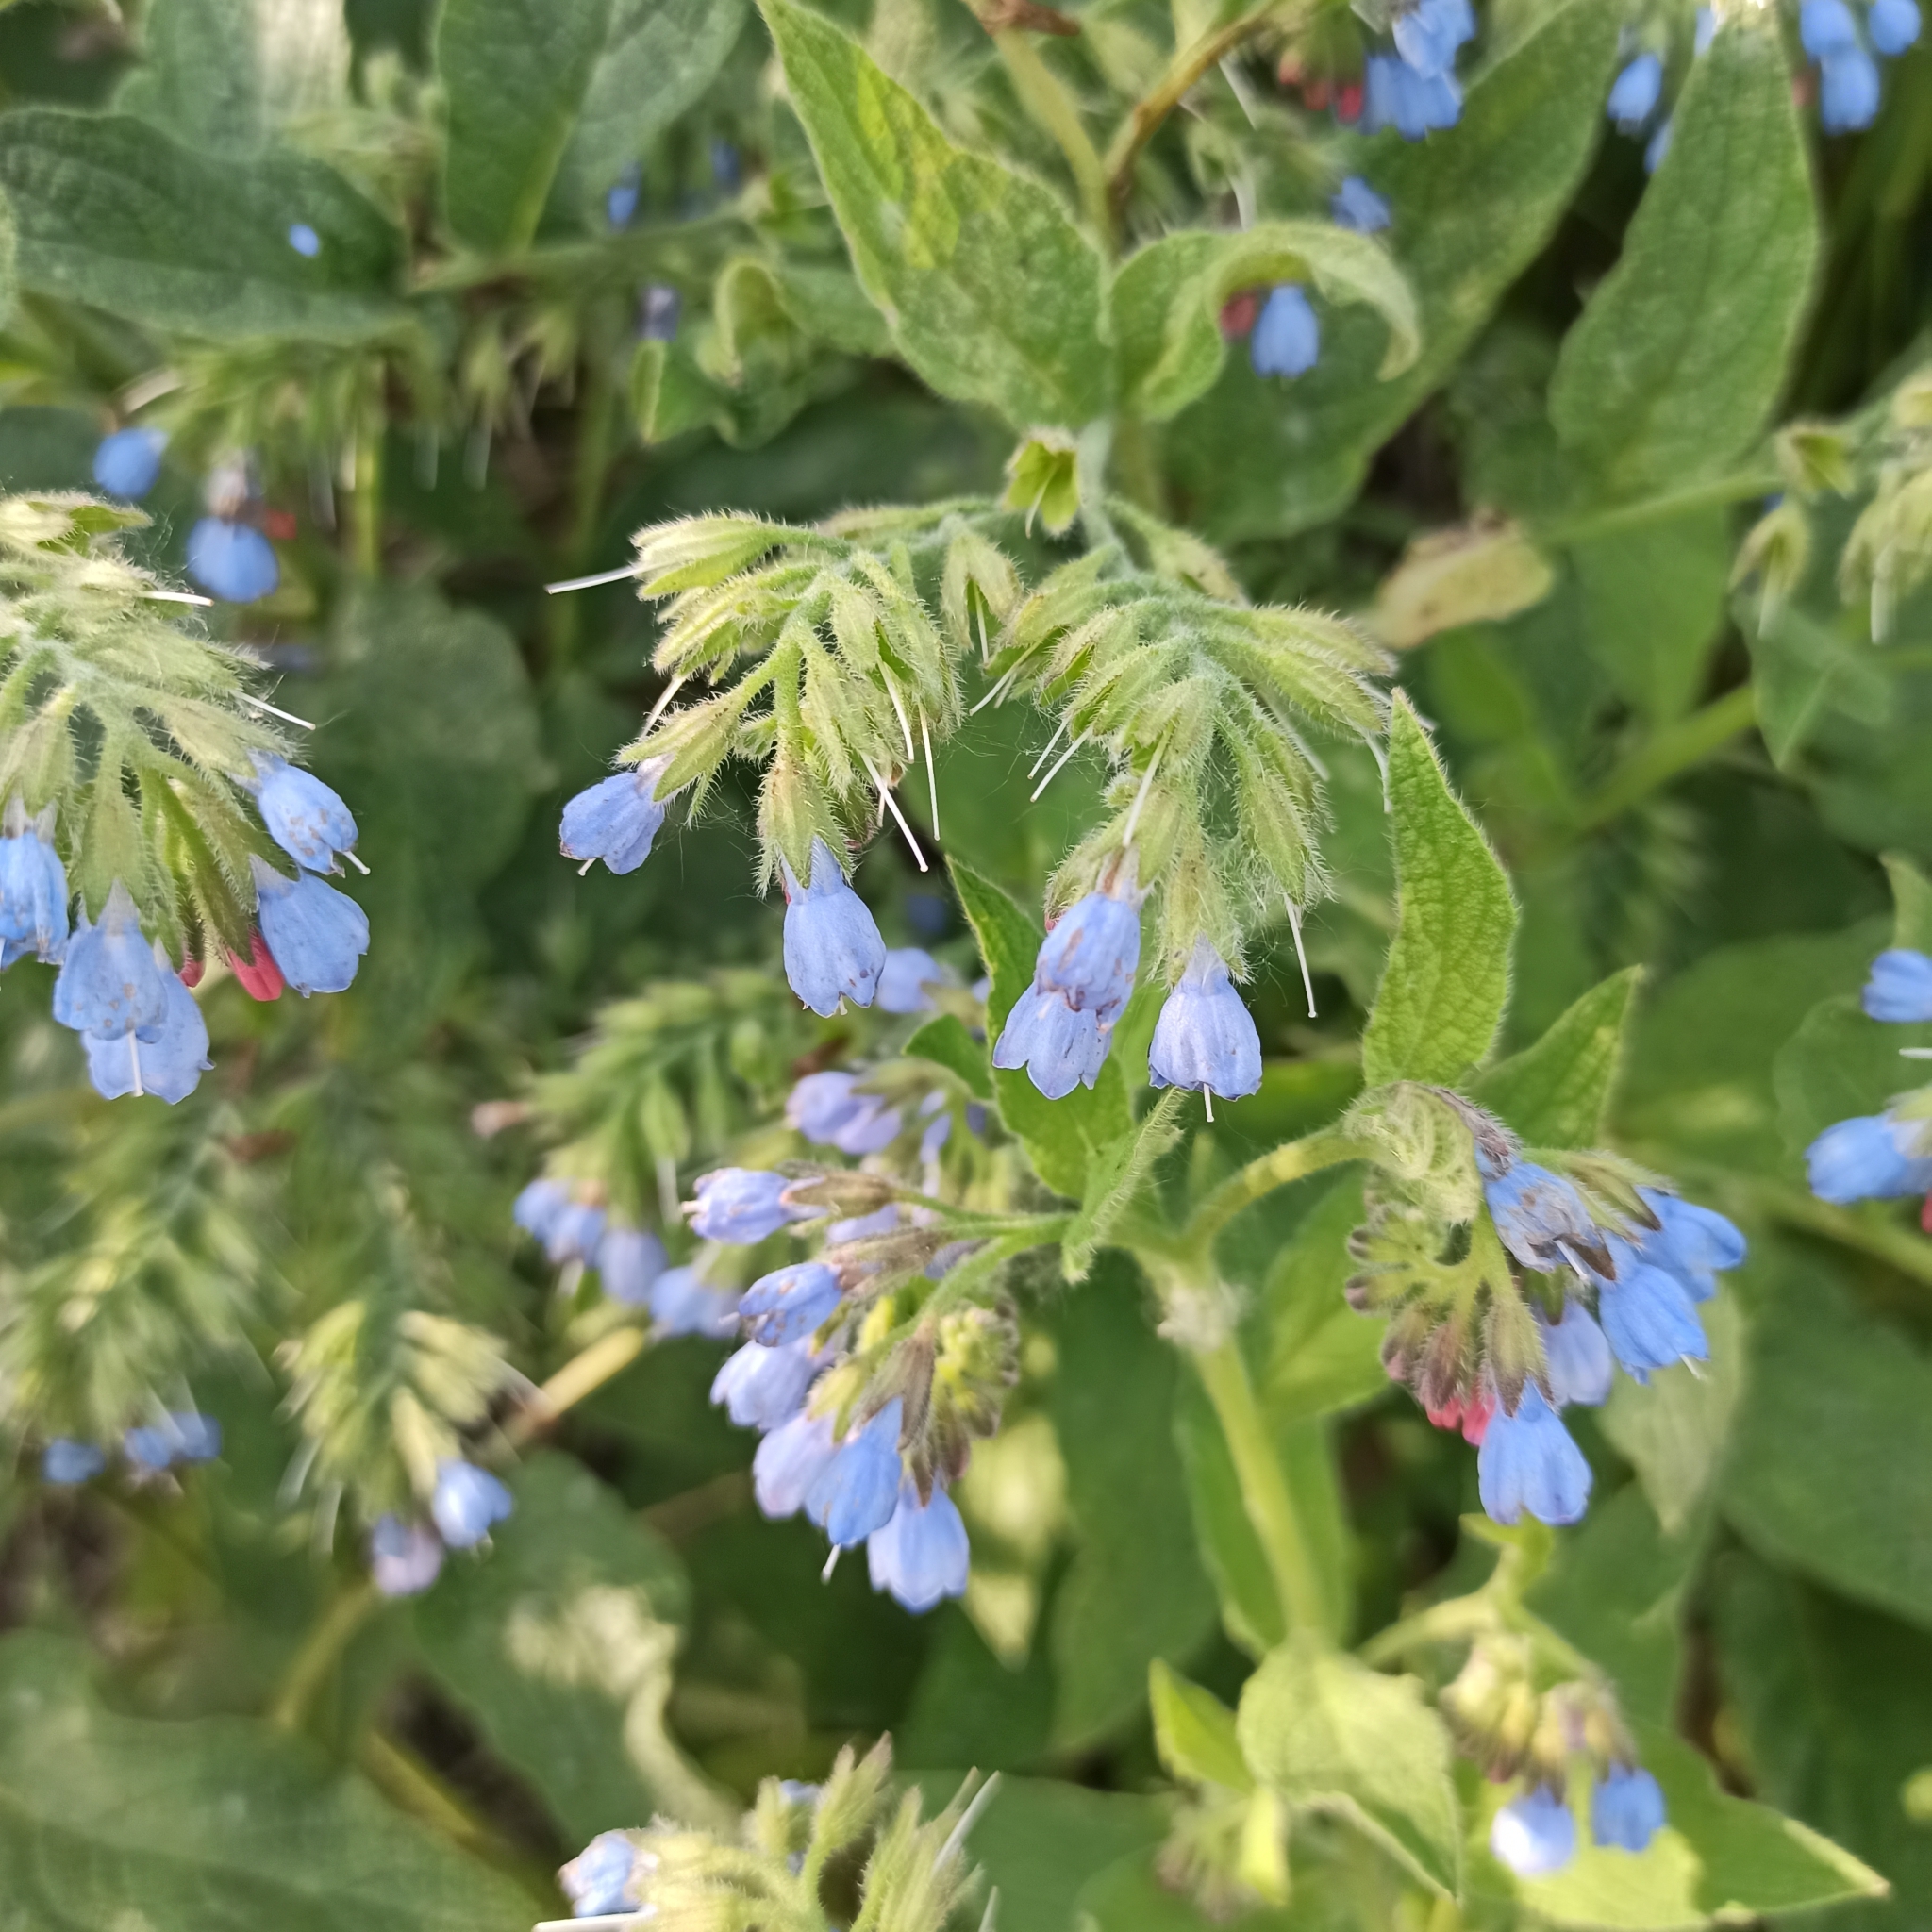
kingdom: Plantae
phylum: Tracheophyta
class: Magnoliopsida
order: Boraginales
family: Boraginaceae
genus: Symphytum
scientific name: Symphytum caucasicum
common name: Caucasian comfrey
